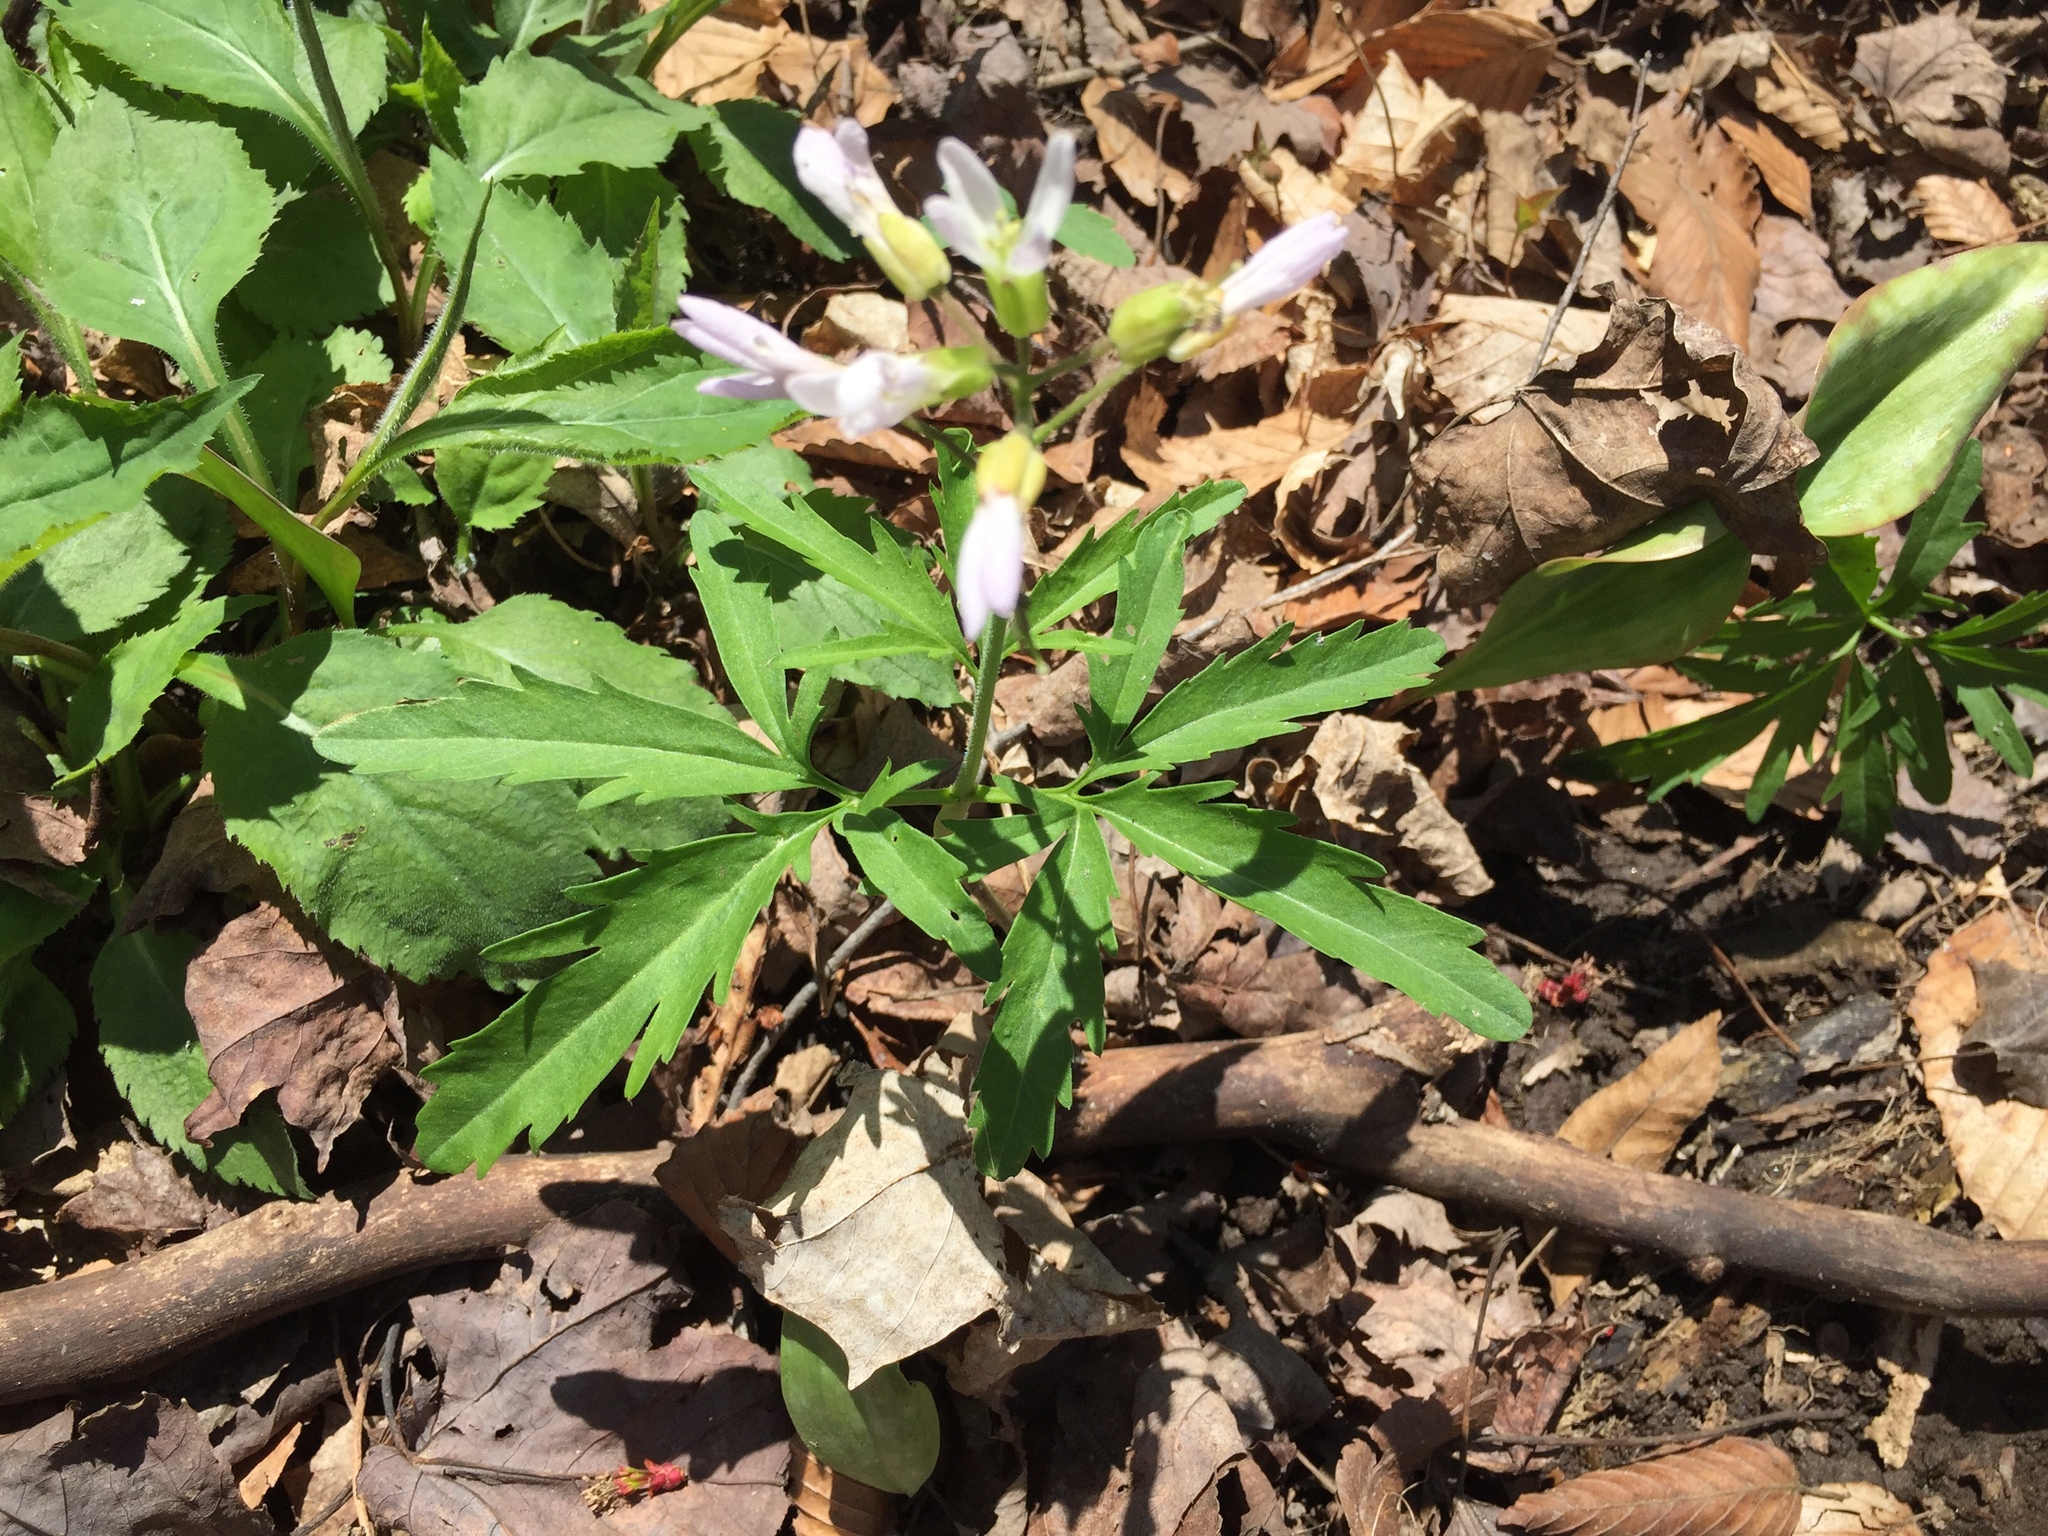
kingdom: Plantae
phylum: Tracheophyta
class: Magnoliopsida
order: Brassicales
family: Brassicaceae
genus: Cardamine
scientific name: Cardamine concatenata
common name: Cut-leaf toothcup
